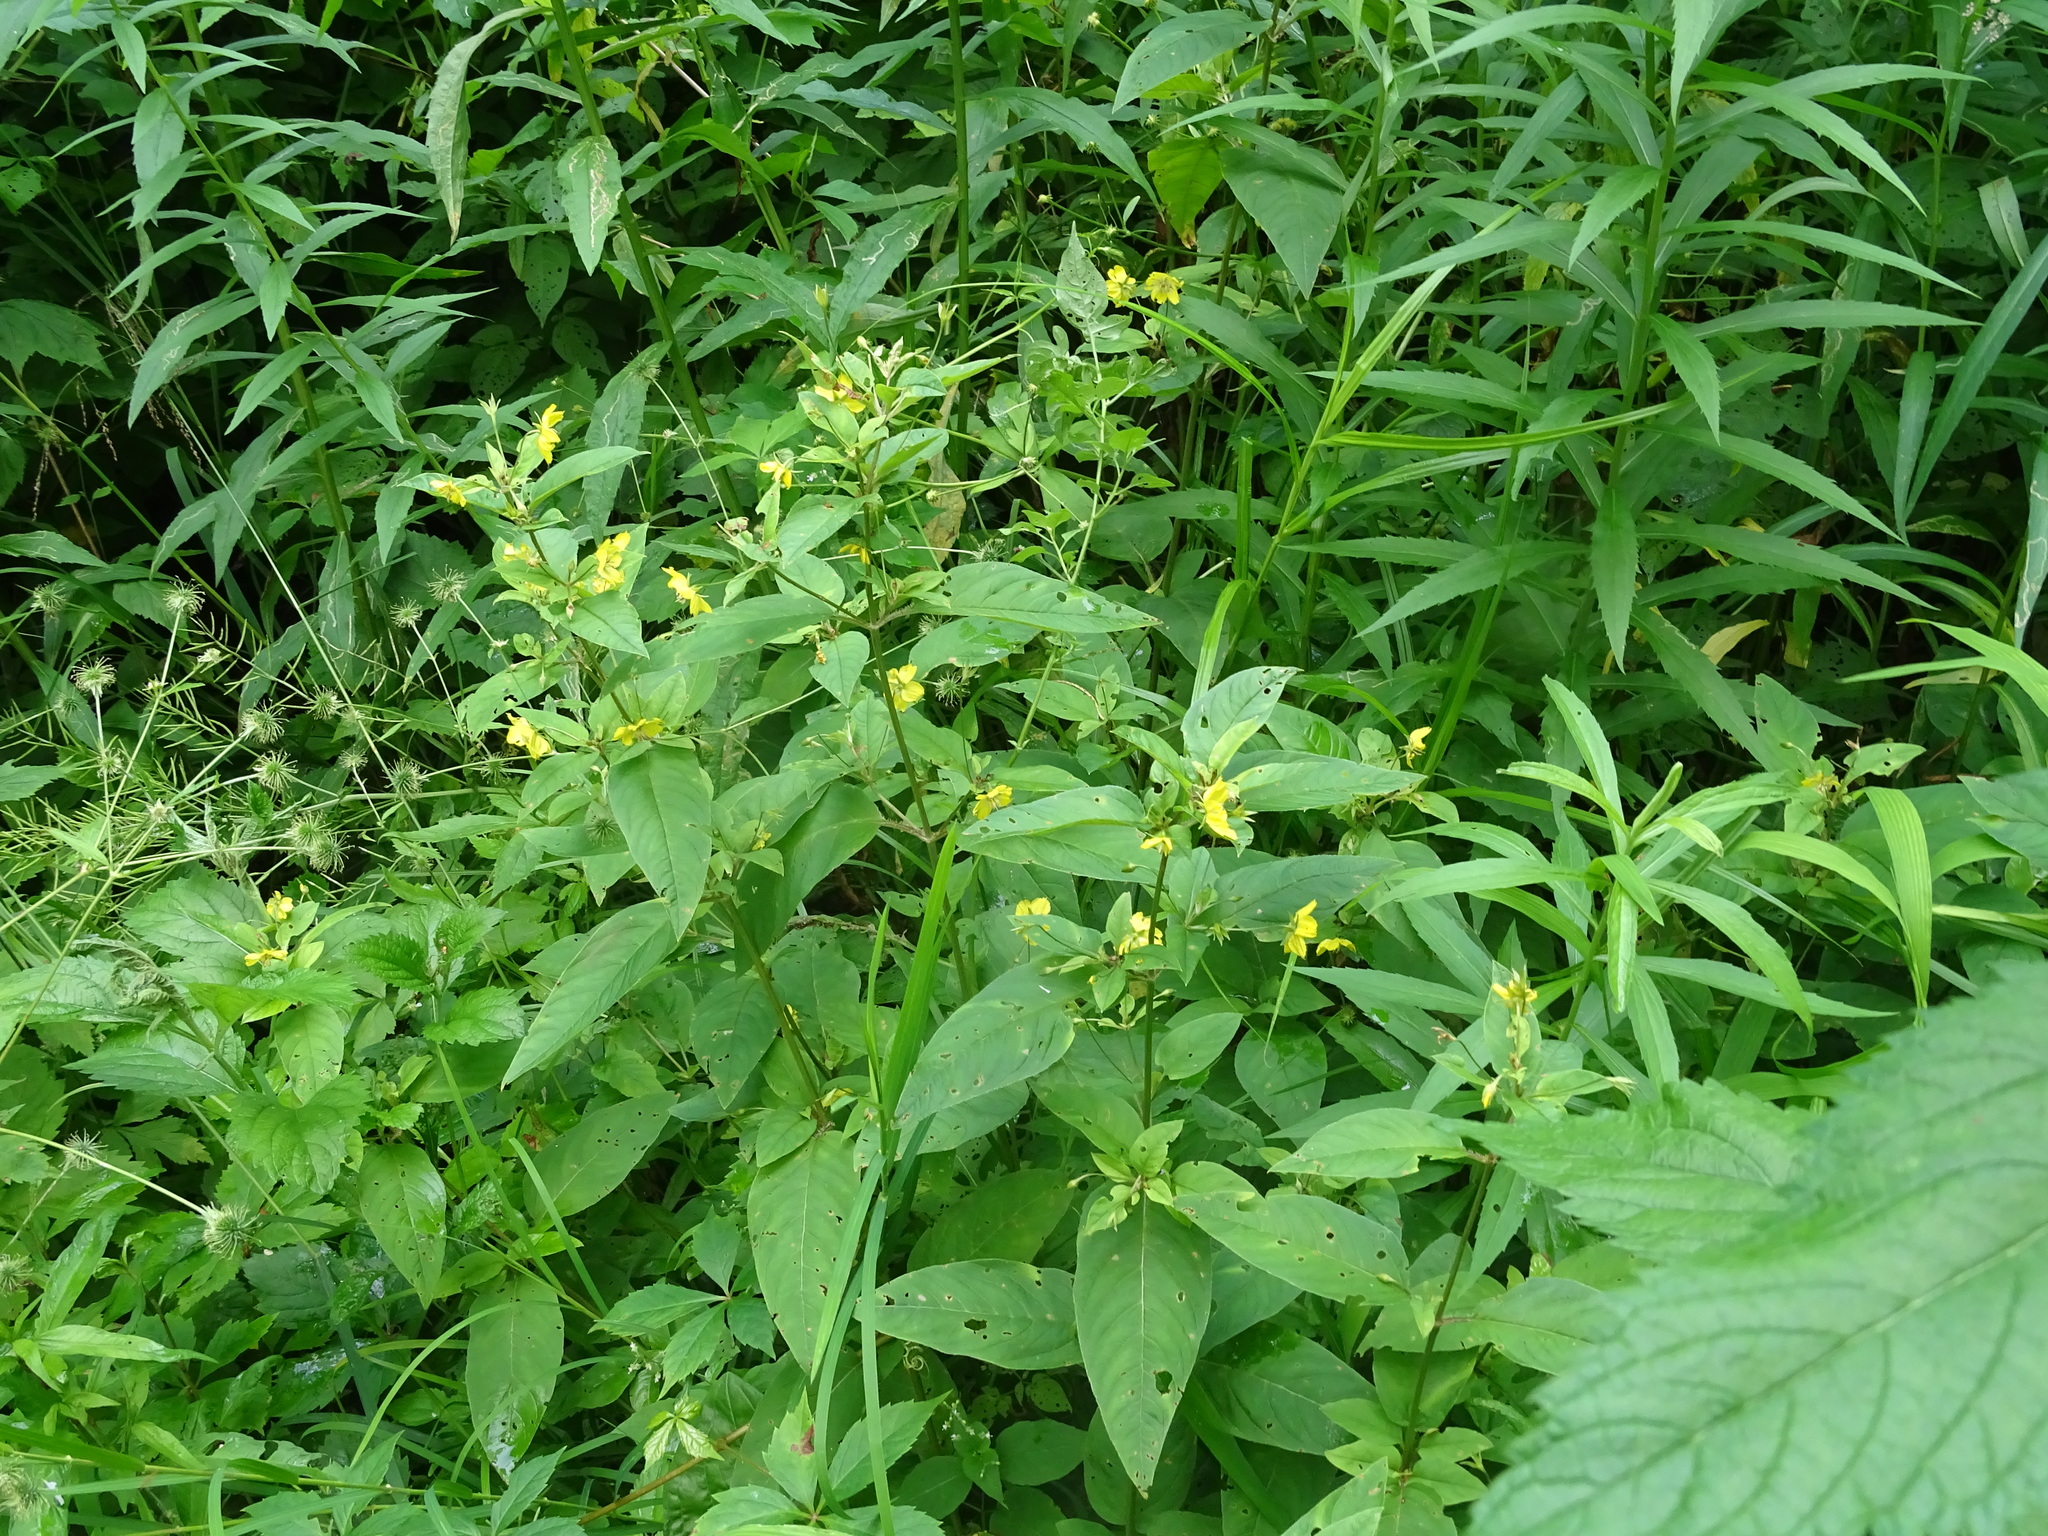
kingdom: Plantae
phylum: Tracheophyta
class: Magnoliopsida
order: Ericales
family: Primulaceae
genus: Lysimachia
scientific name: Lysimachia ciliata
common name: Fringed loosestrife
